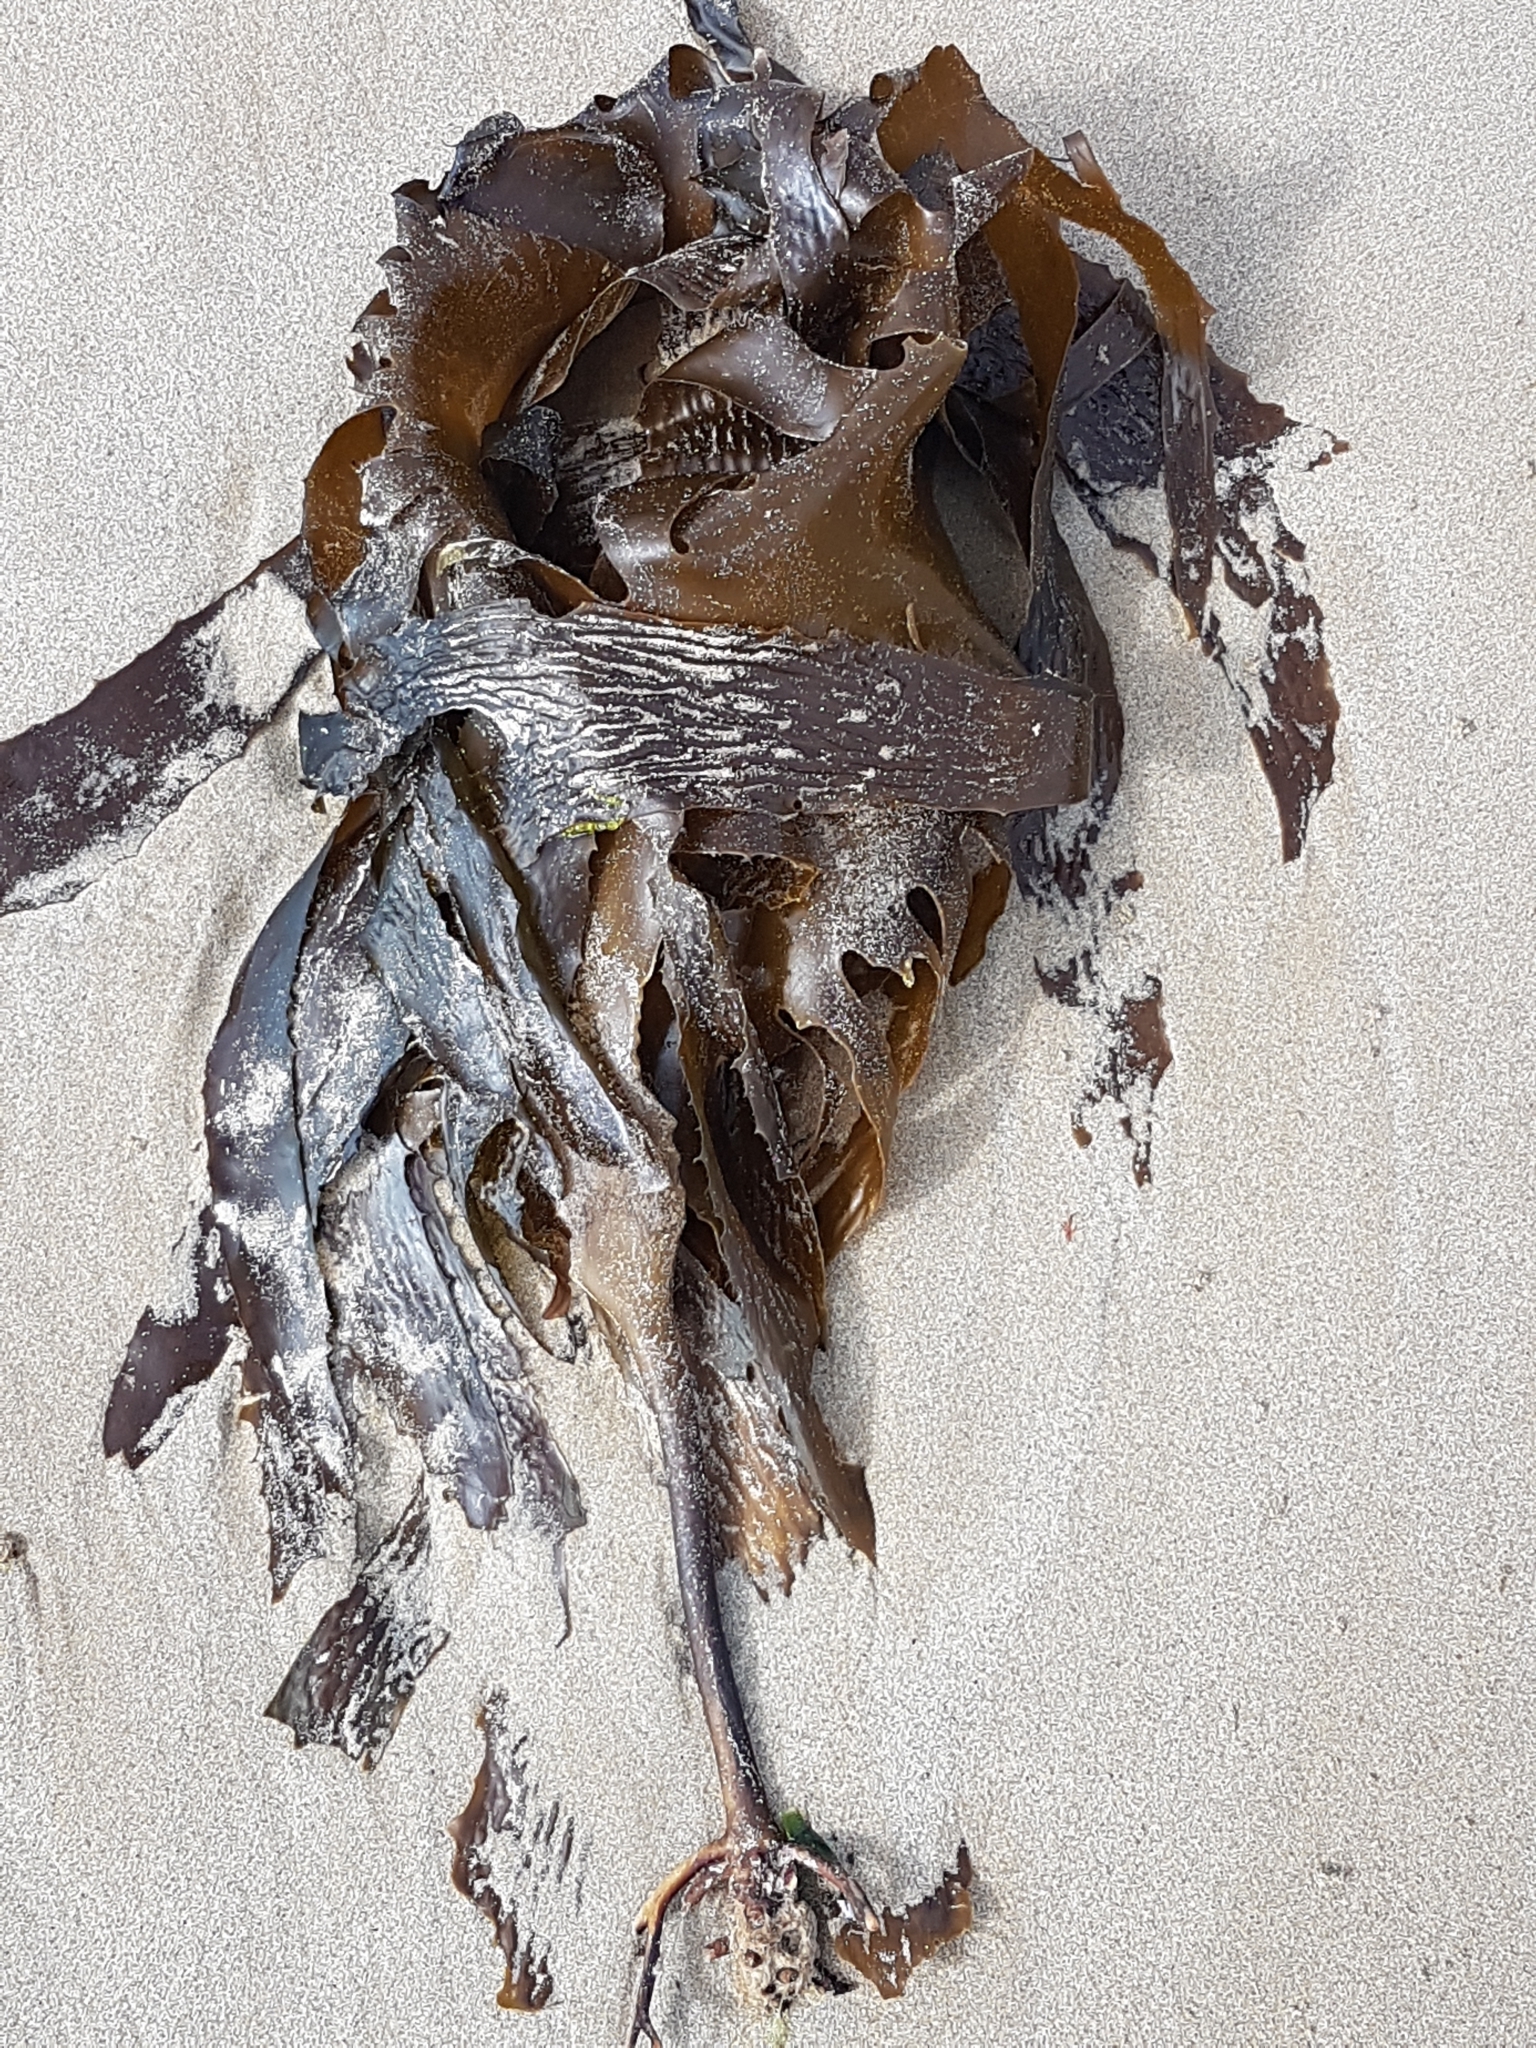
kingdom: Chromista
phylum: Ochrophyta
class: Phaeophyceae
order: Laminariales
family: Lessoniaceae
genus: Ecklonia
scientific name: Ecklonia radiata
